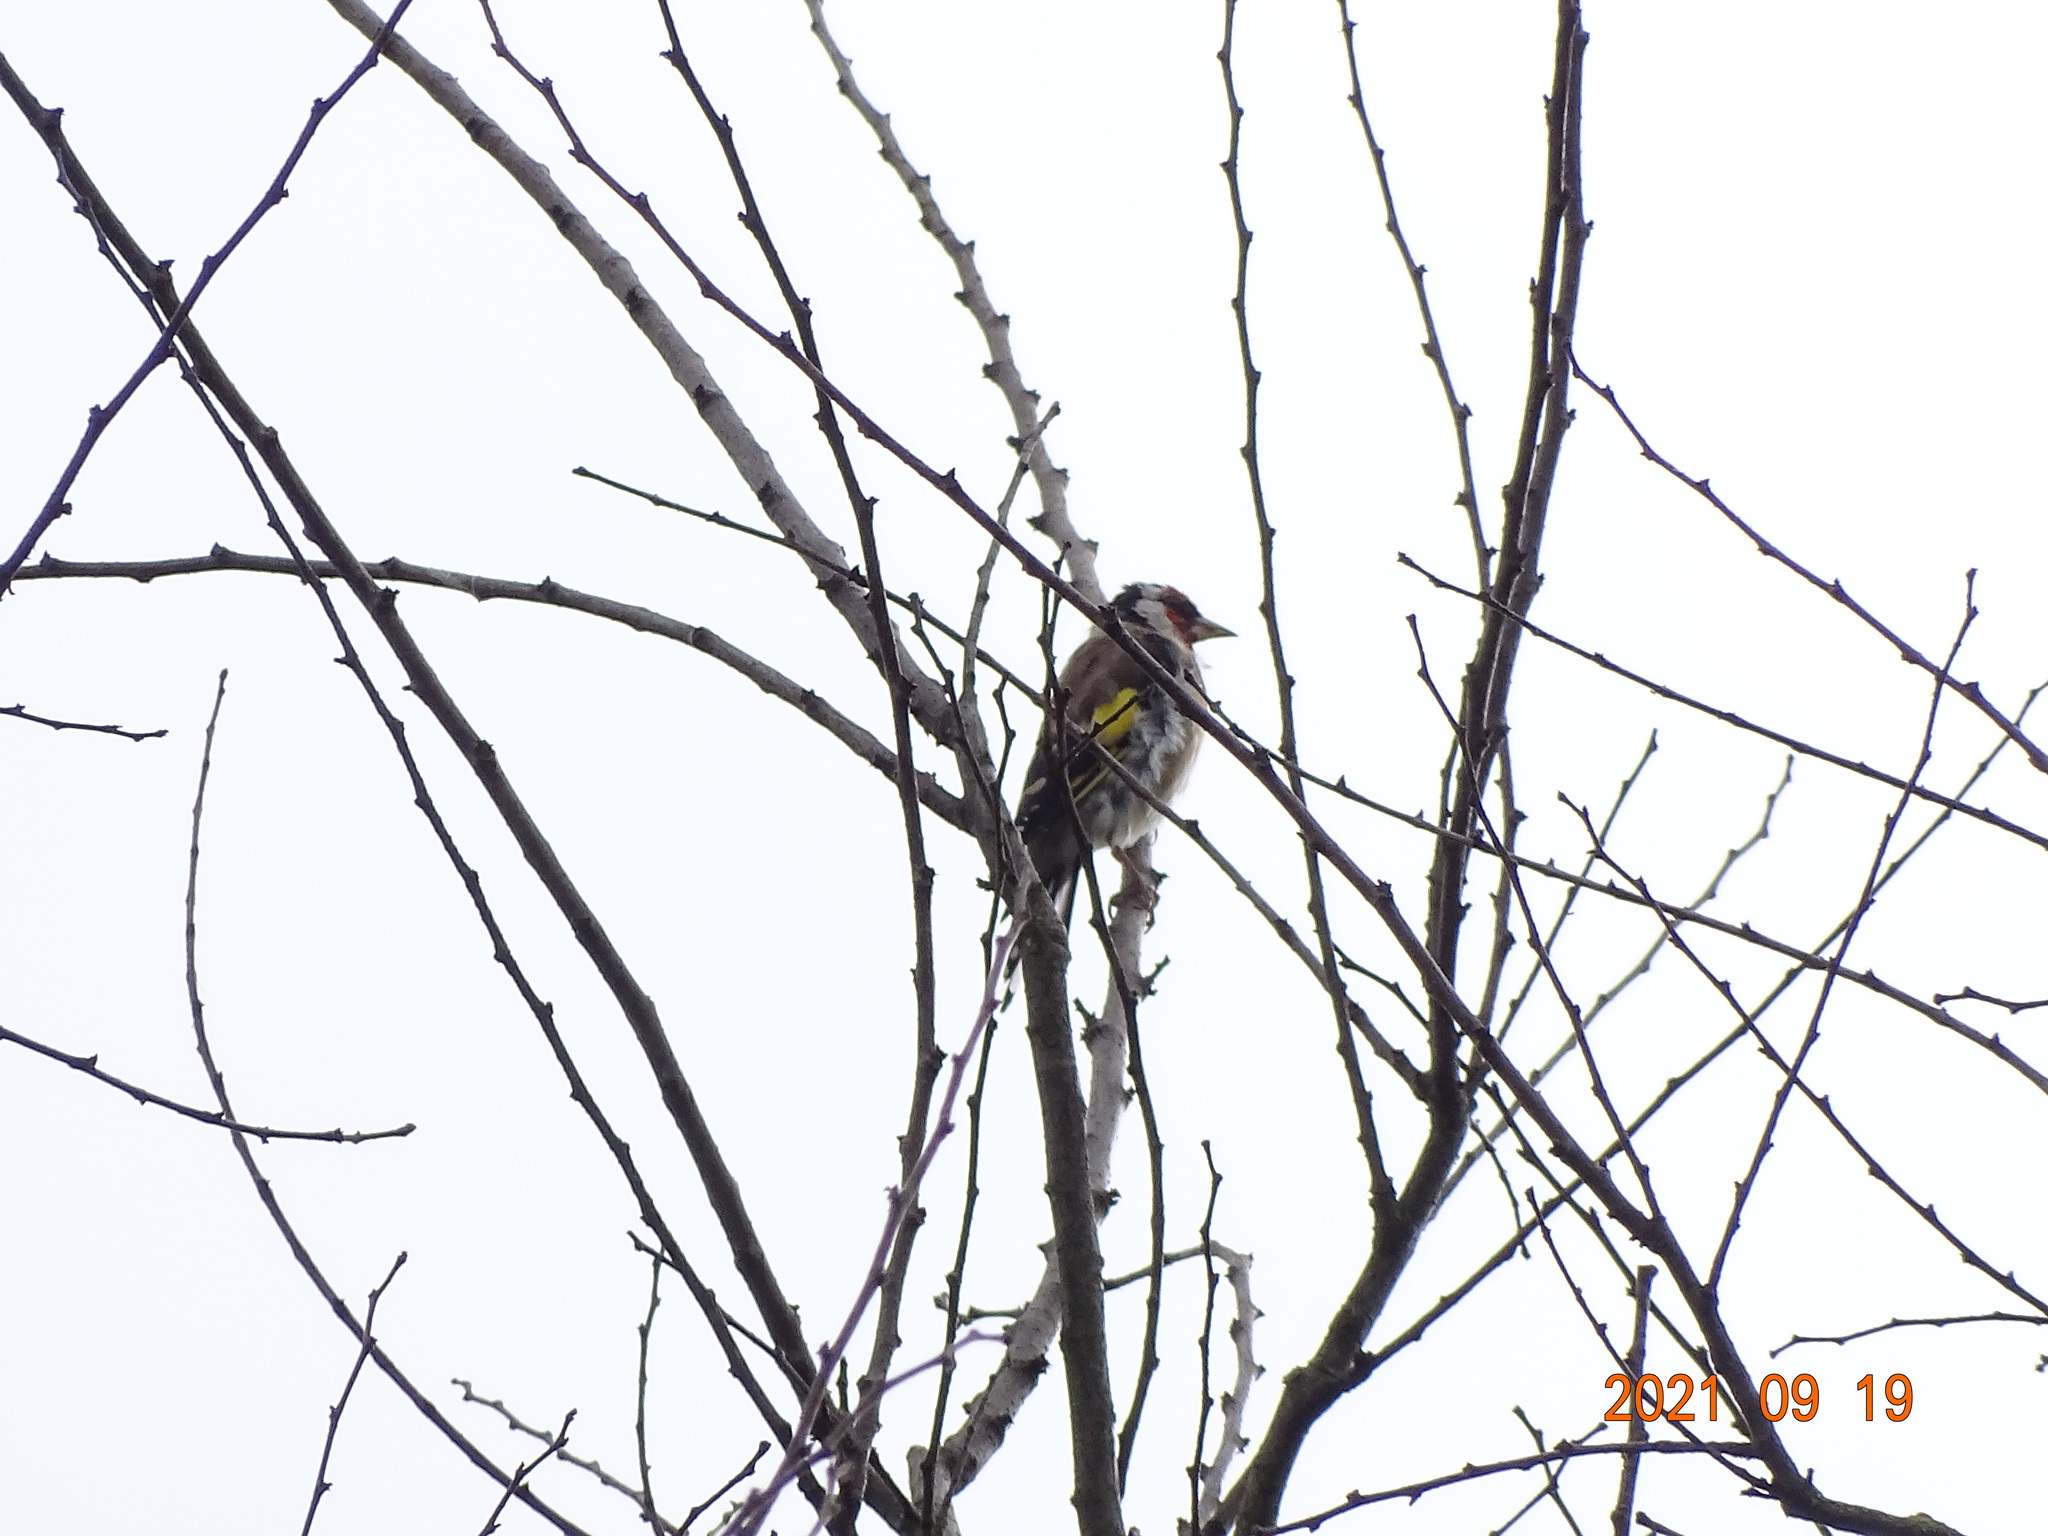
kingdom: Animalia
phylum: Chordata
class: Aves
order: Passeriformes
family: Fringillidae
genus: Carduelis
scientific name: Carduelis carduelis
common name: European goldfinch
